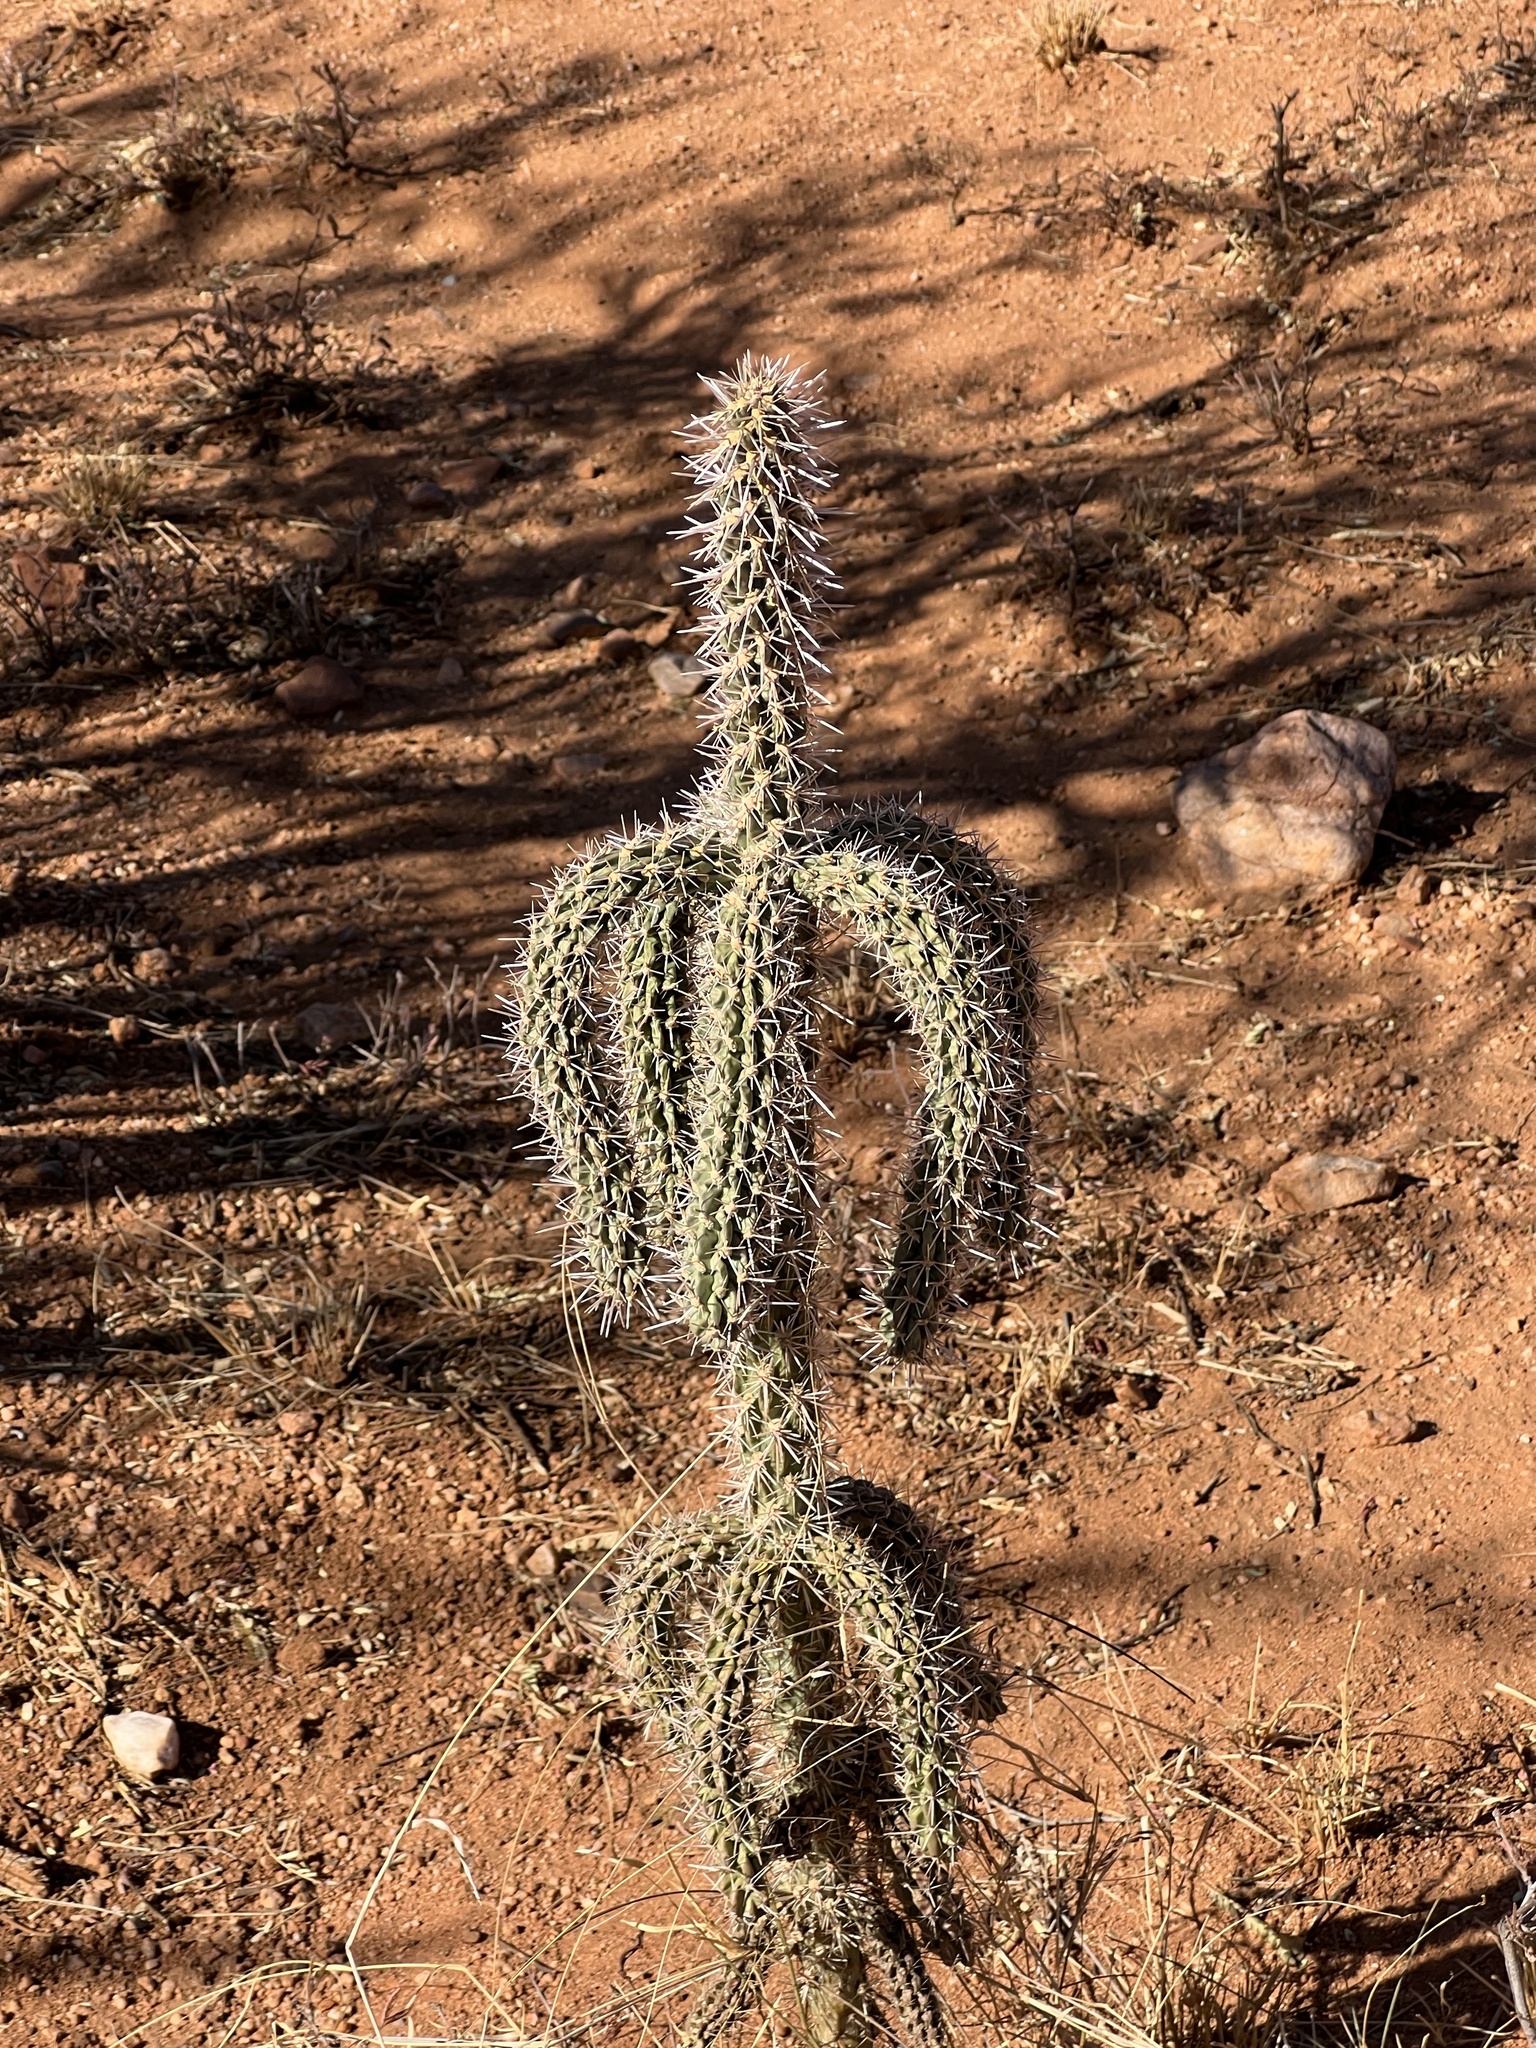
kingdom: Plantae
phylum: Tracheophyta
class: Magnoliopsida
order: Caryophyllales
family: Cactaceae
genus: Cylindropuntia
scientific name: Cylindropuntia imbricata
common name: Candelabrum cactus
